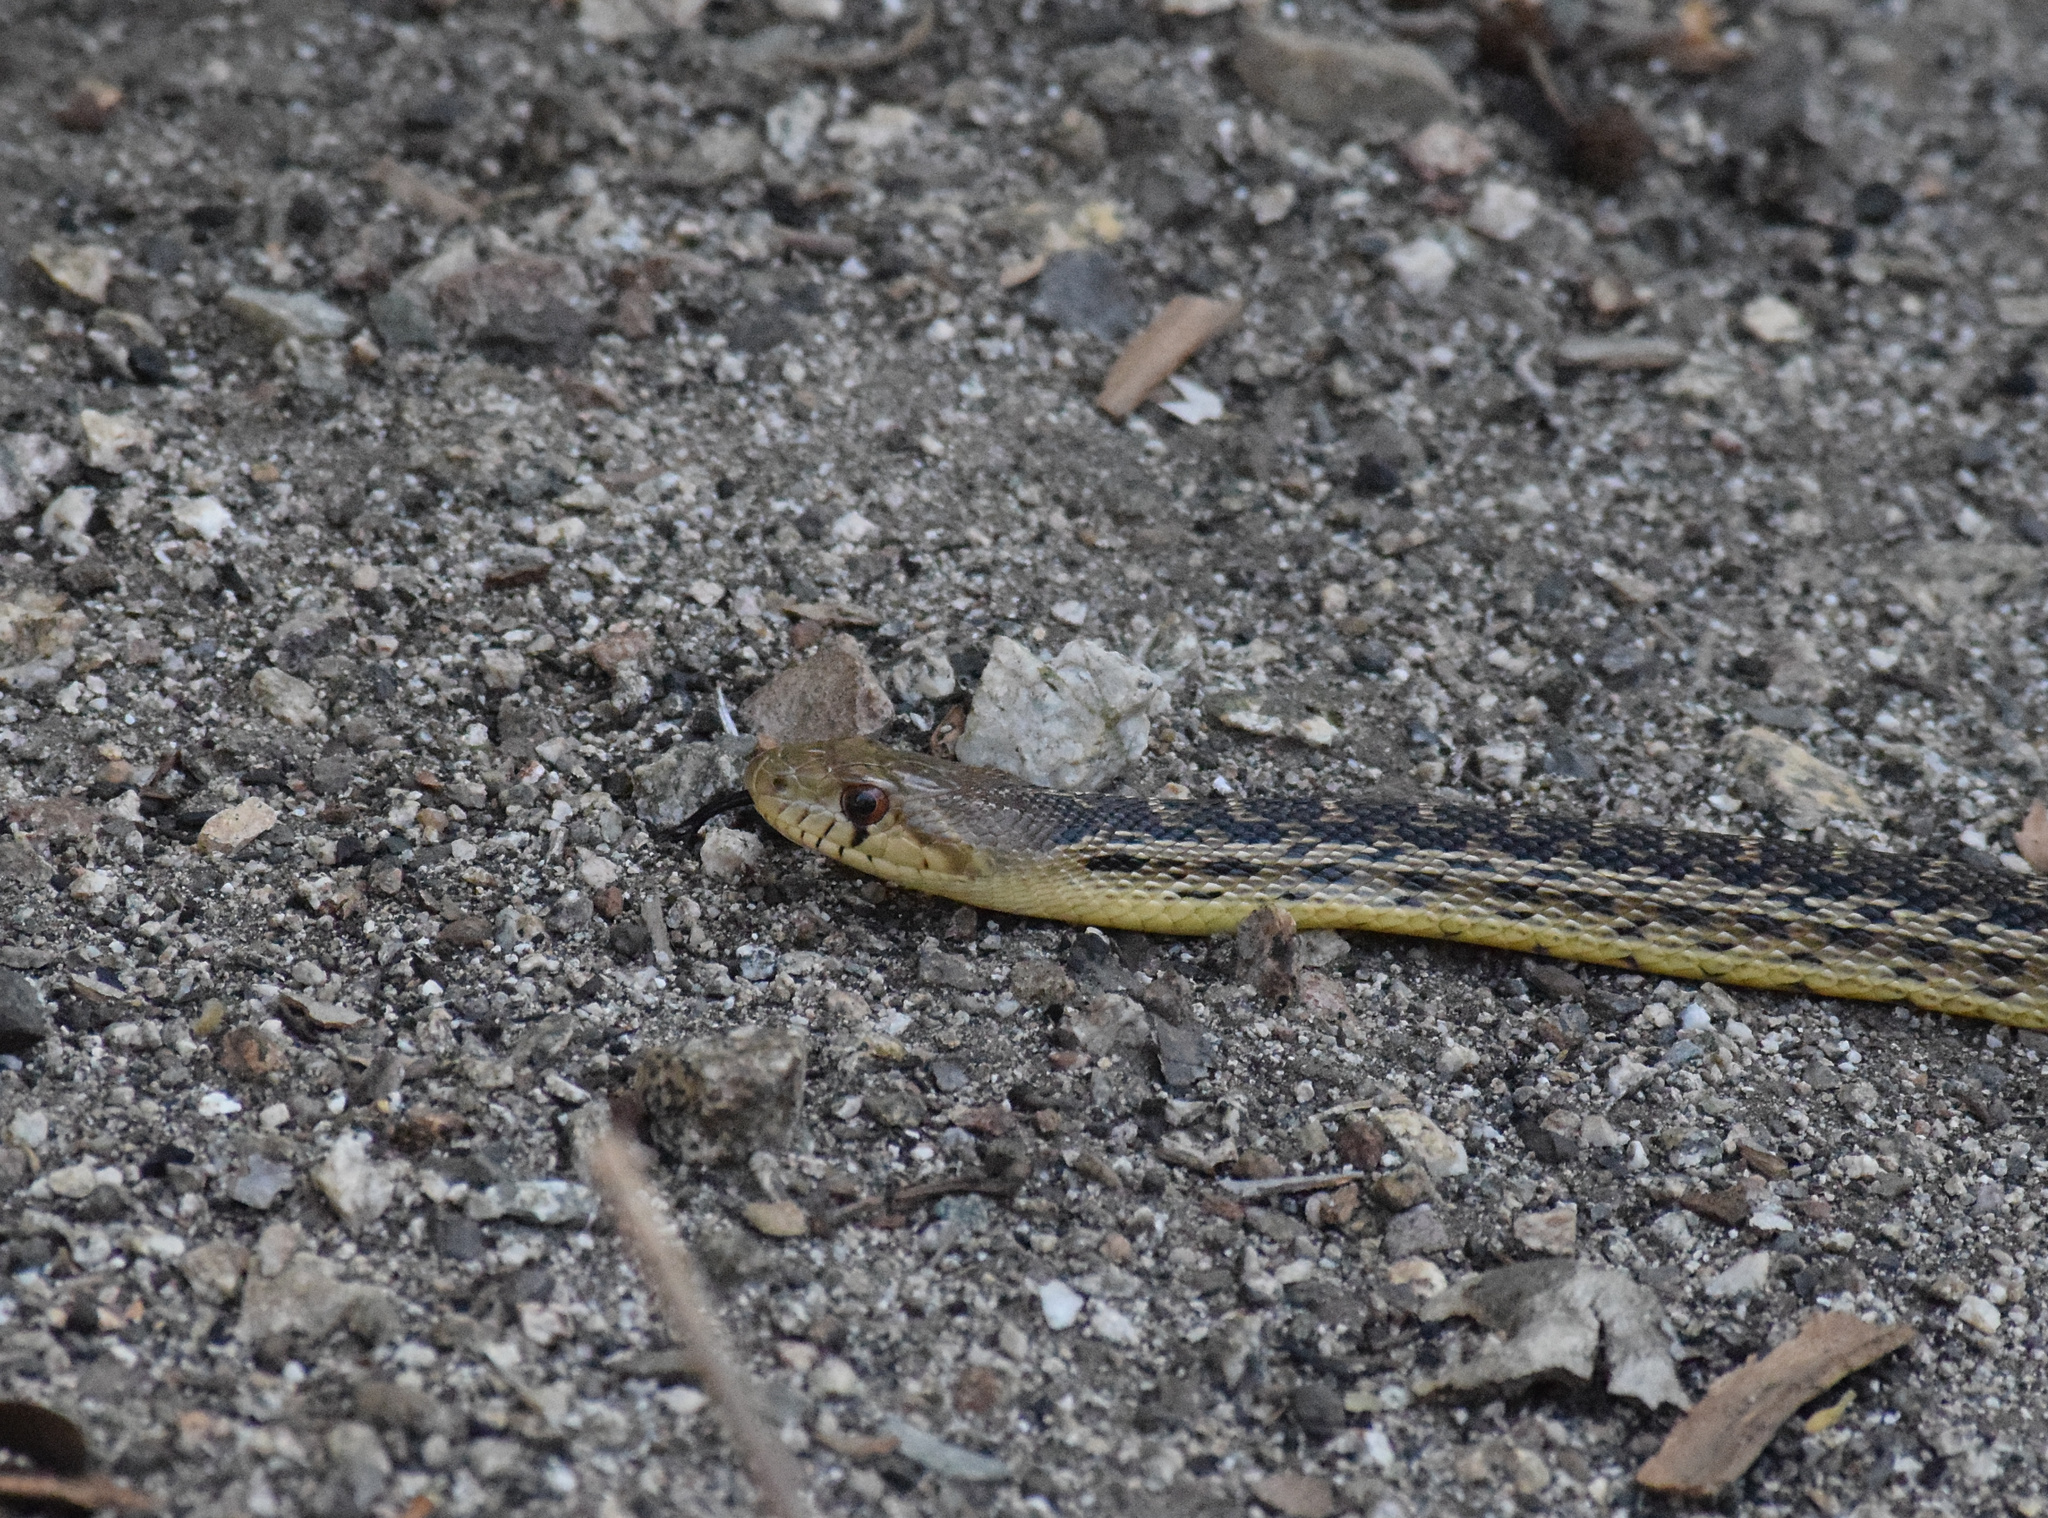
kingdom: Animalia
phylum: Chordata
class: Squamata
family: Colubridae
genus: Pituophis
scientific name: Pituophis catenifer
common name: Gopher snake
